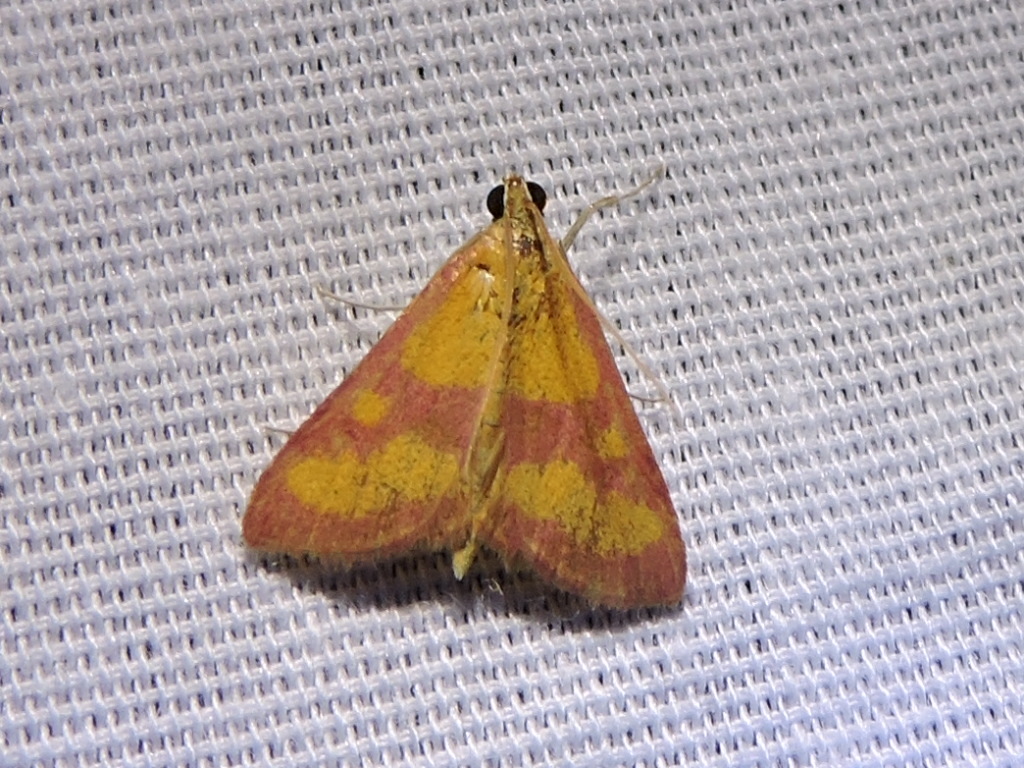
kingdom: Animalia
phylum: Arthropoda
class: Insecta
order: Lepidoptera
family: Crambidae
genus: Pyrausta
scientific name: Pyrausta laticlavia
